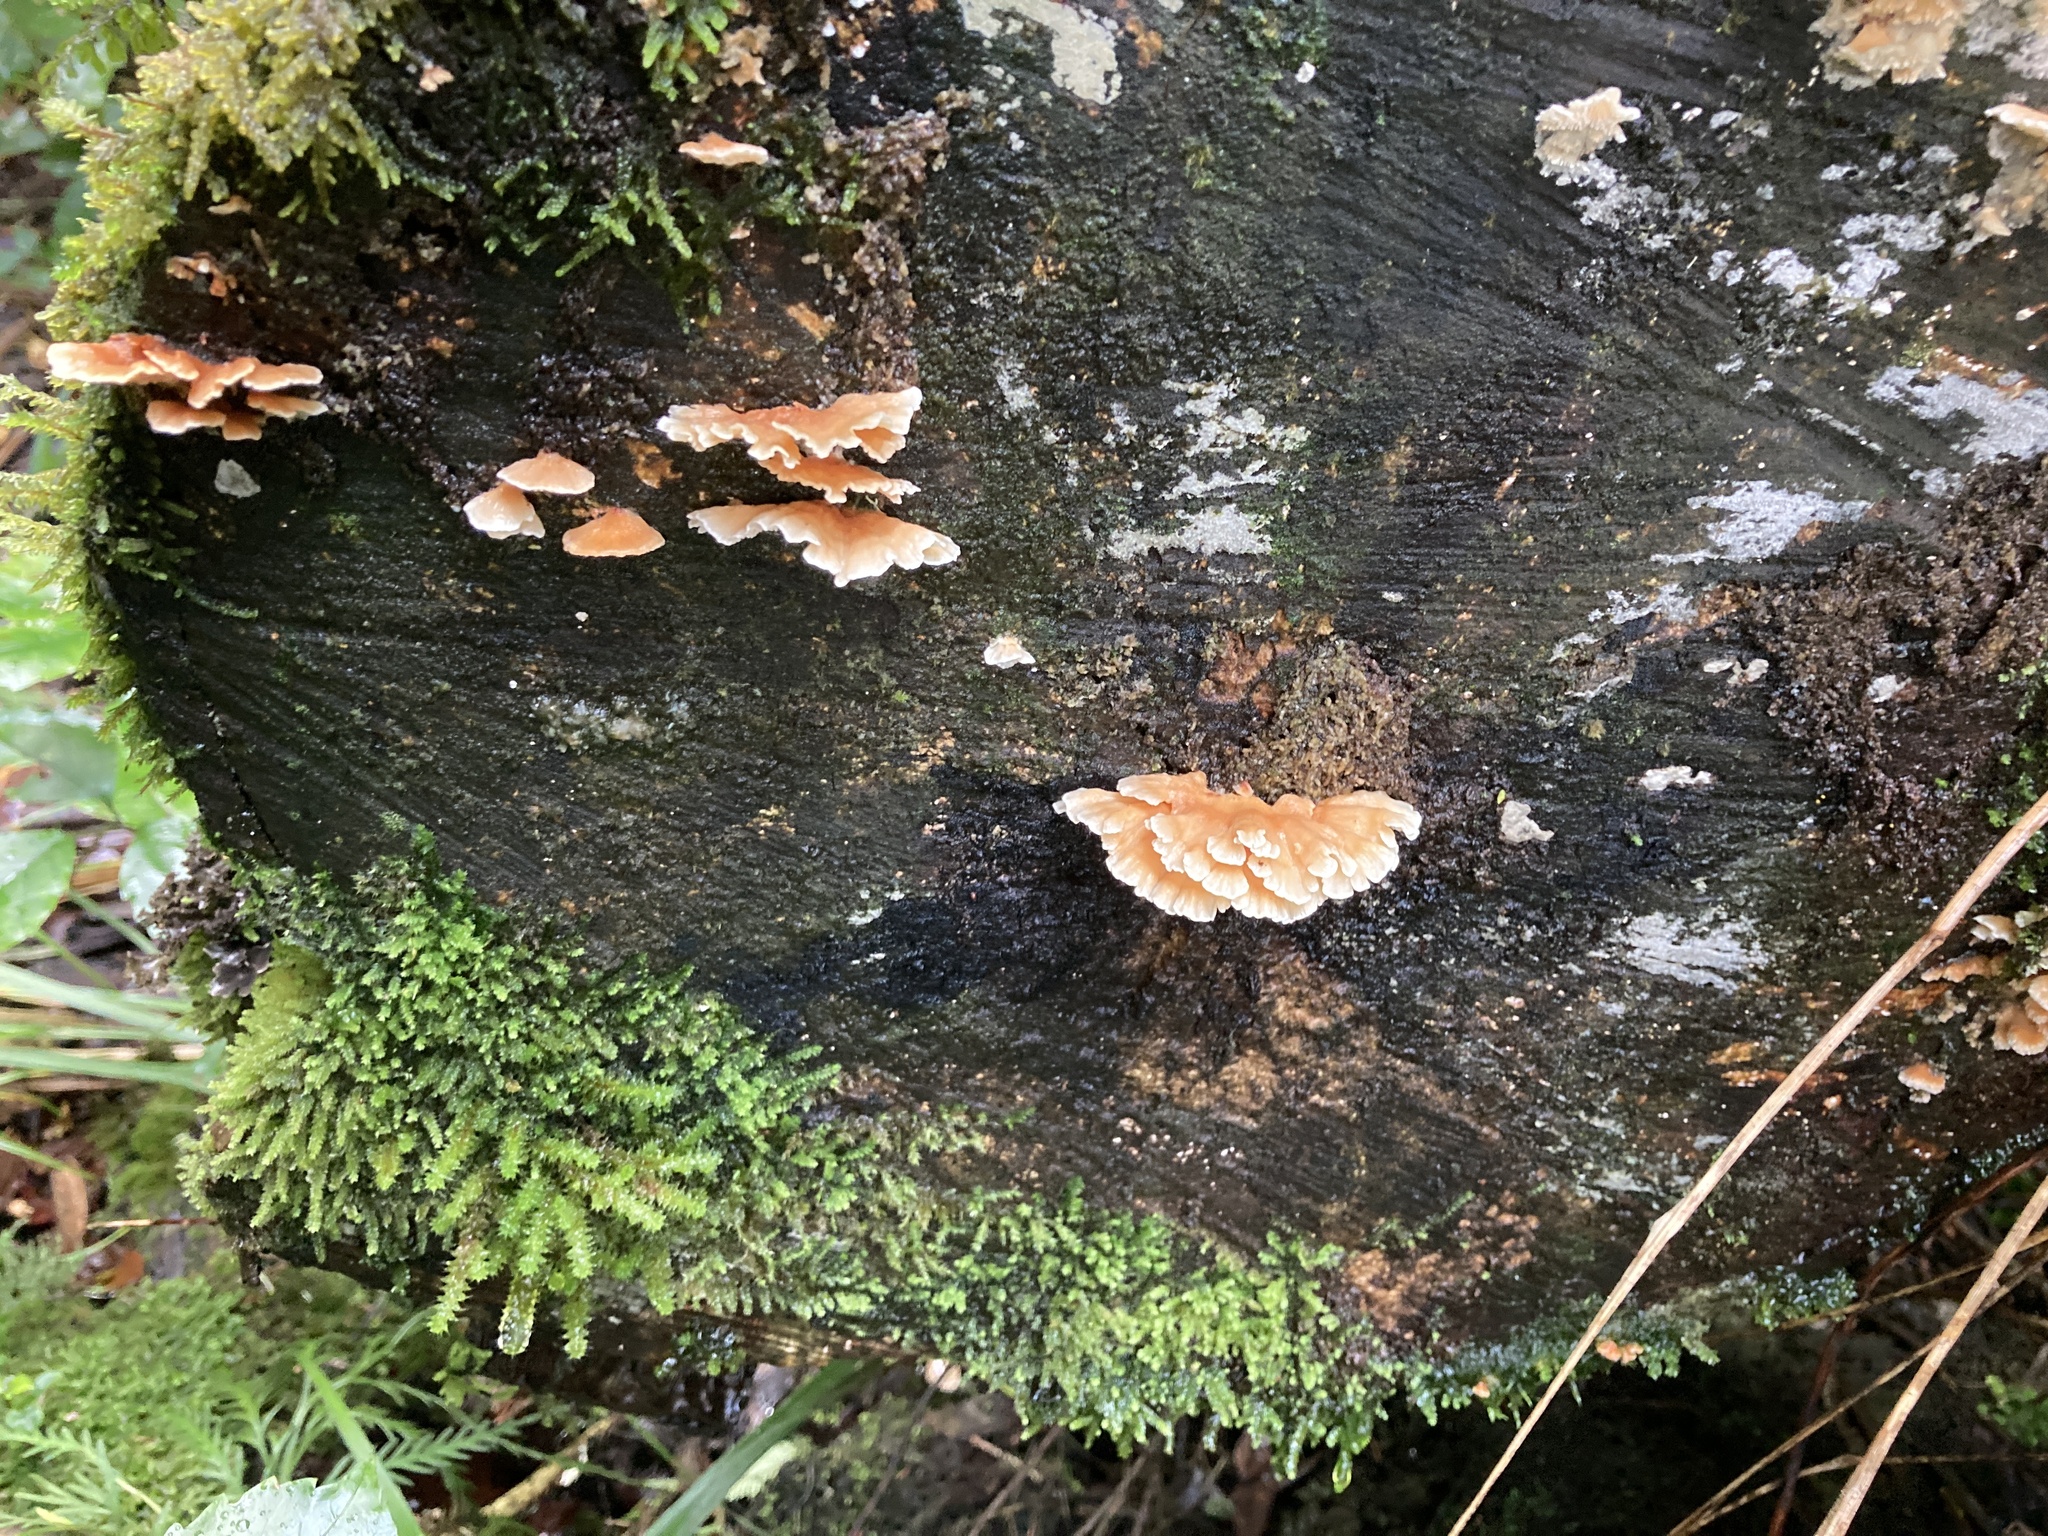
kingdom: Fungi
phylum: Basidiomycota
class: Agaricomycetes
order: Polyporales
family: Cerrenaceae
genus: Cerrena
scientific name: Cerrena zonata
